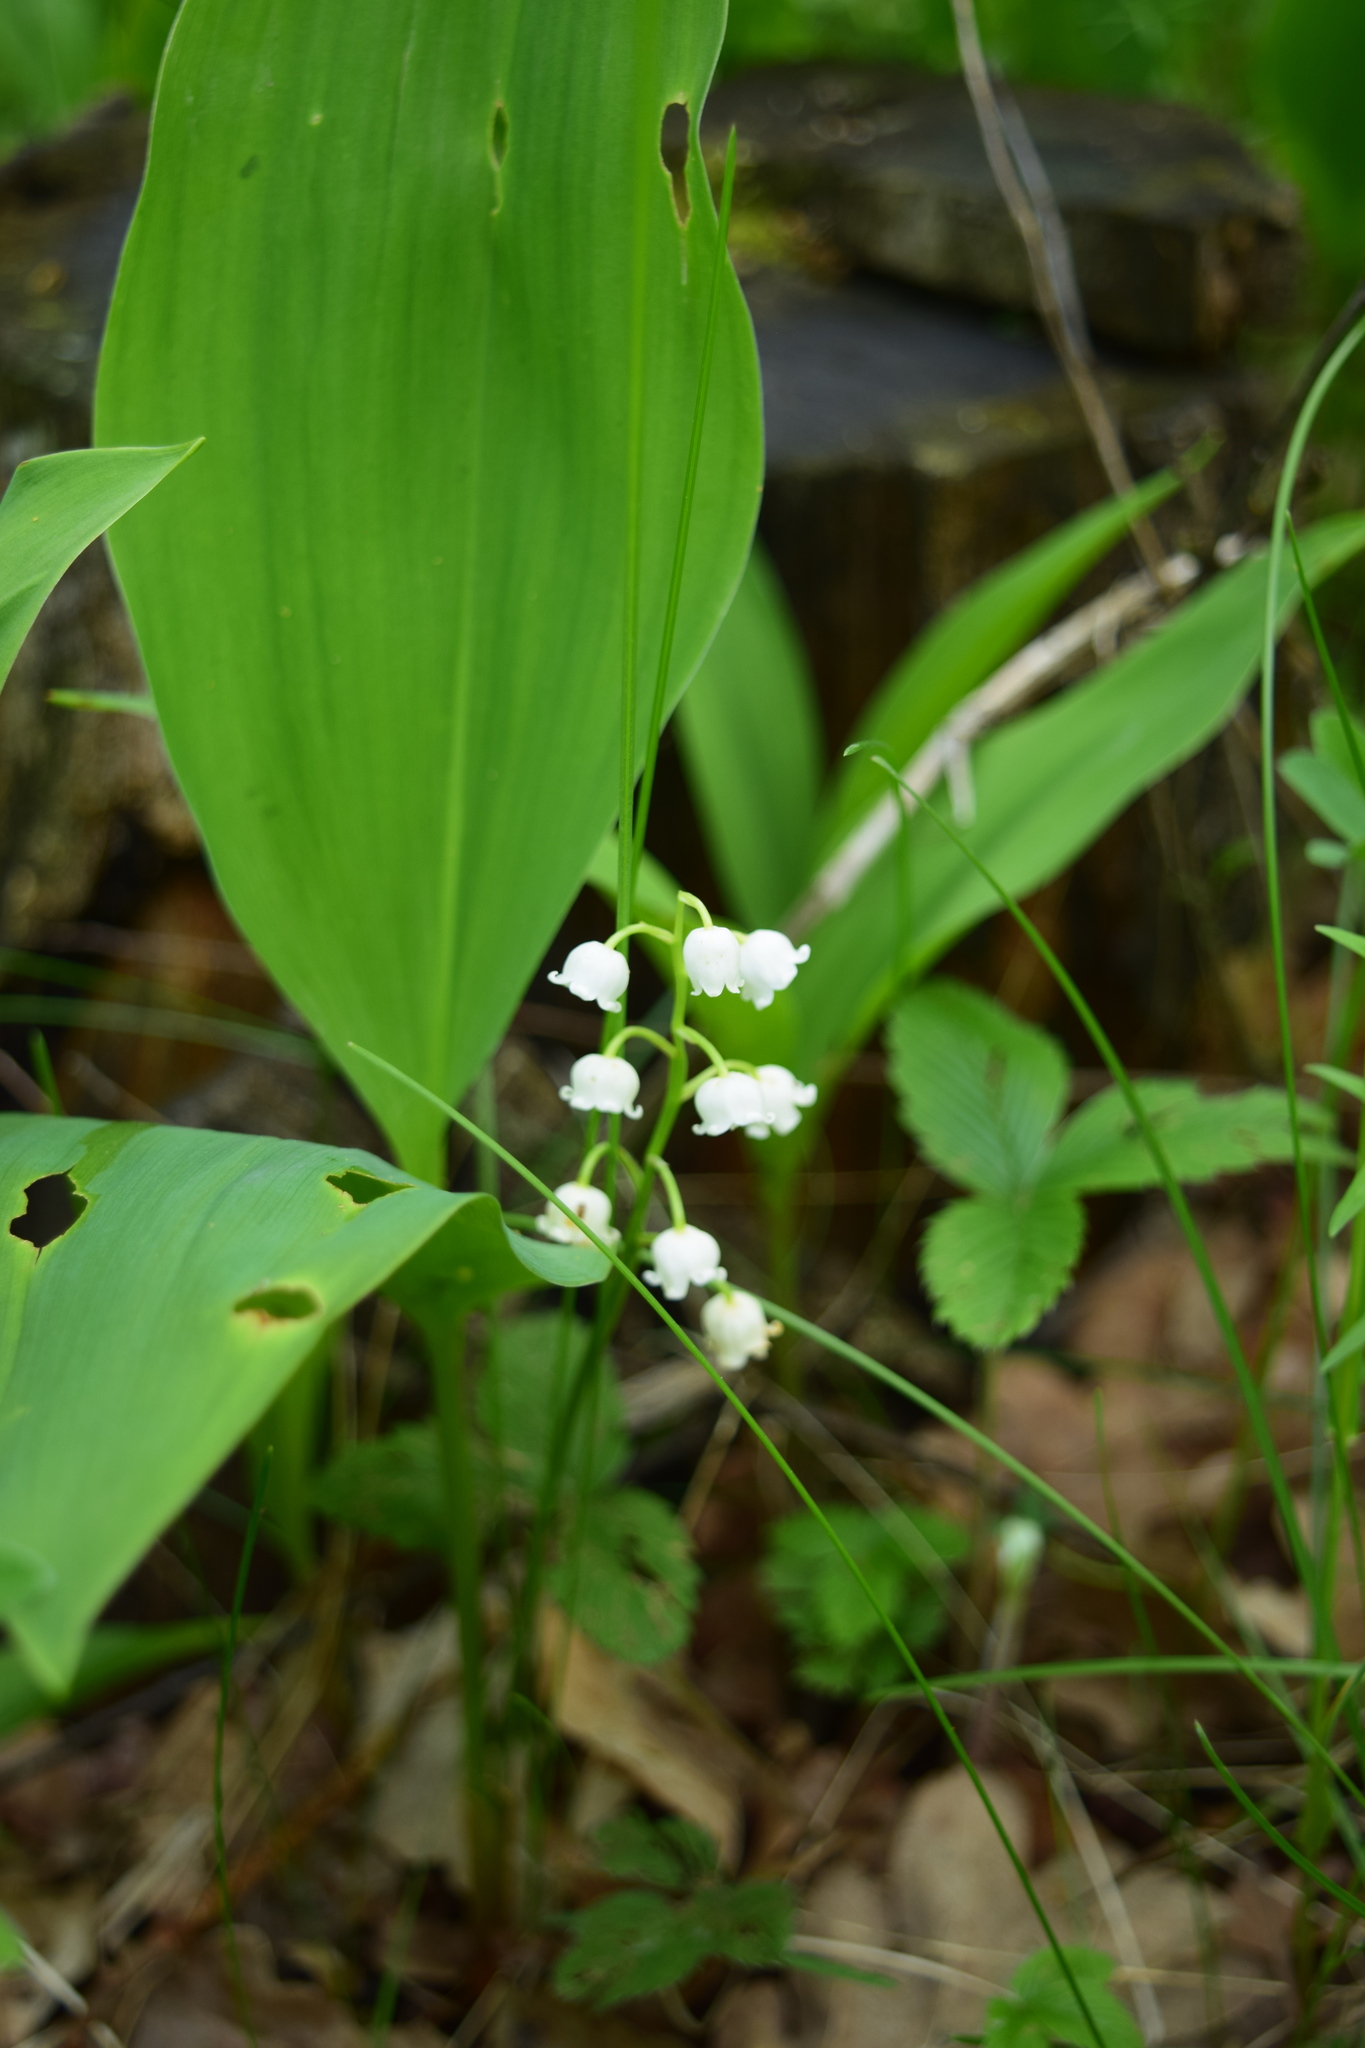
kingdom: Plantae
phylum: Tracheophyta
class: Liliopsida
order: Asparagales
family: Asparagaceae
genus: Convallaria
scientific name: Convallaria majalis
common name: Lily-of-the-valley
